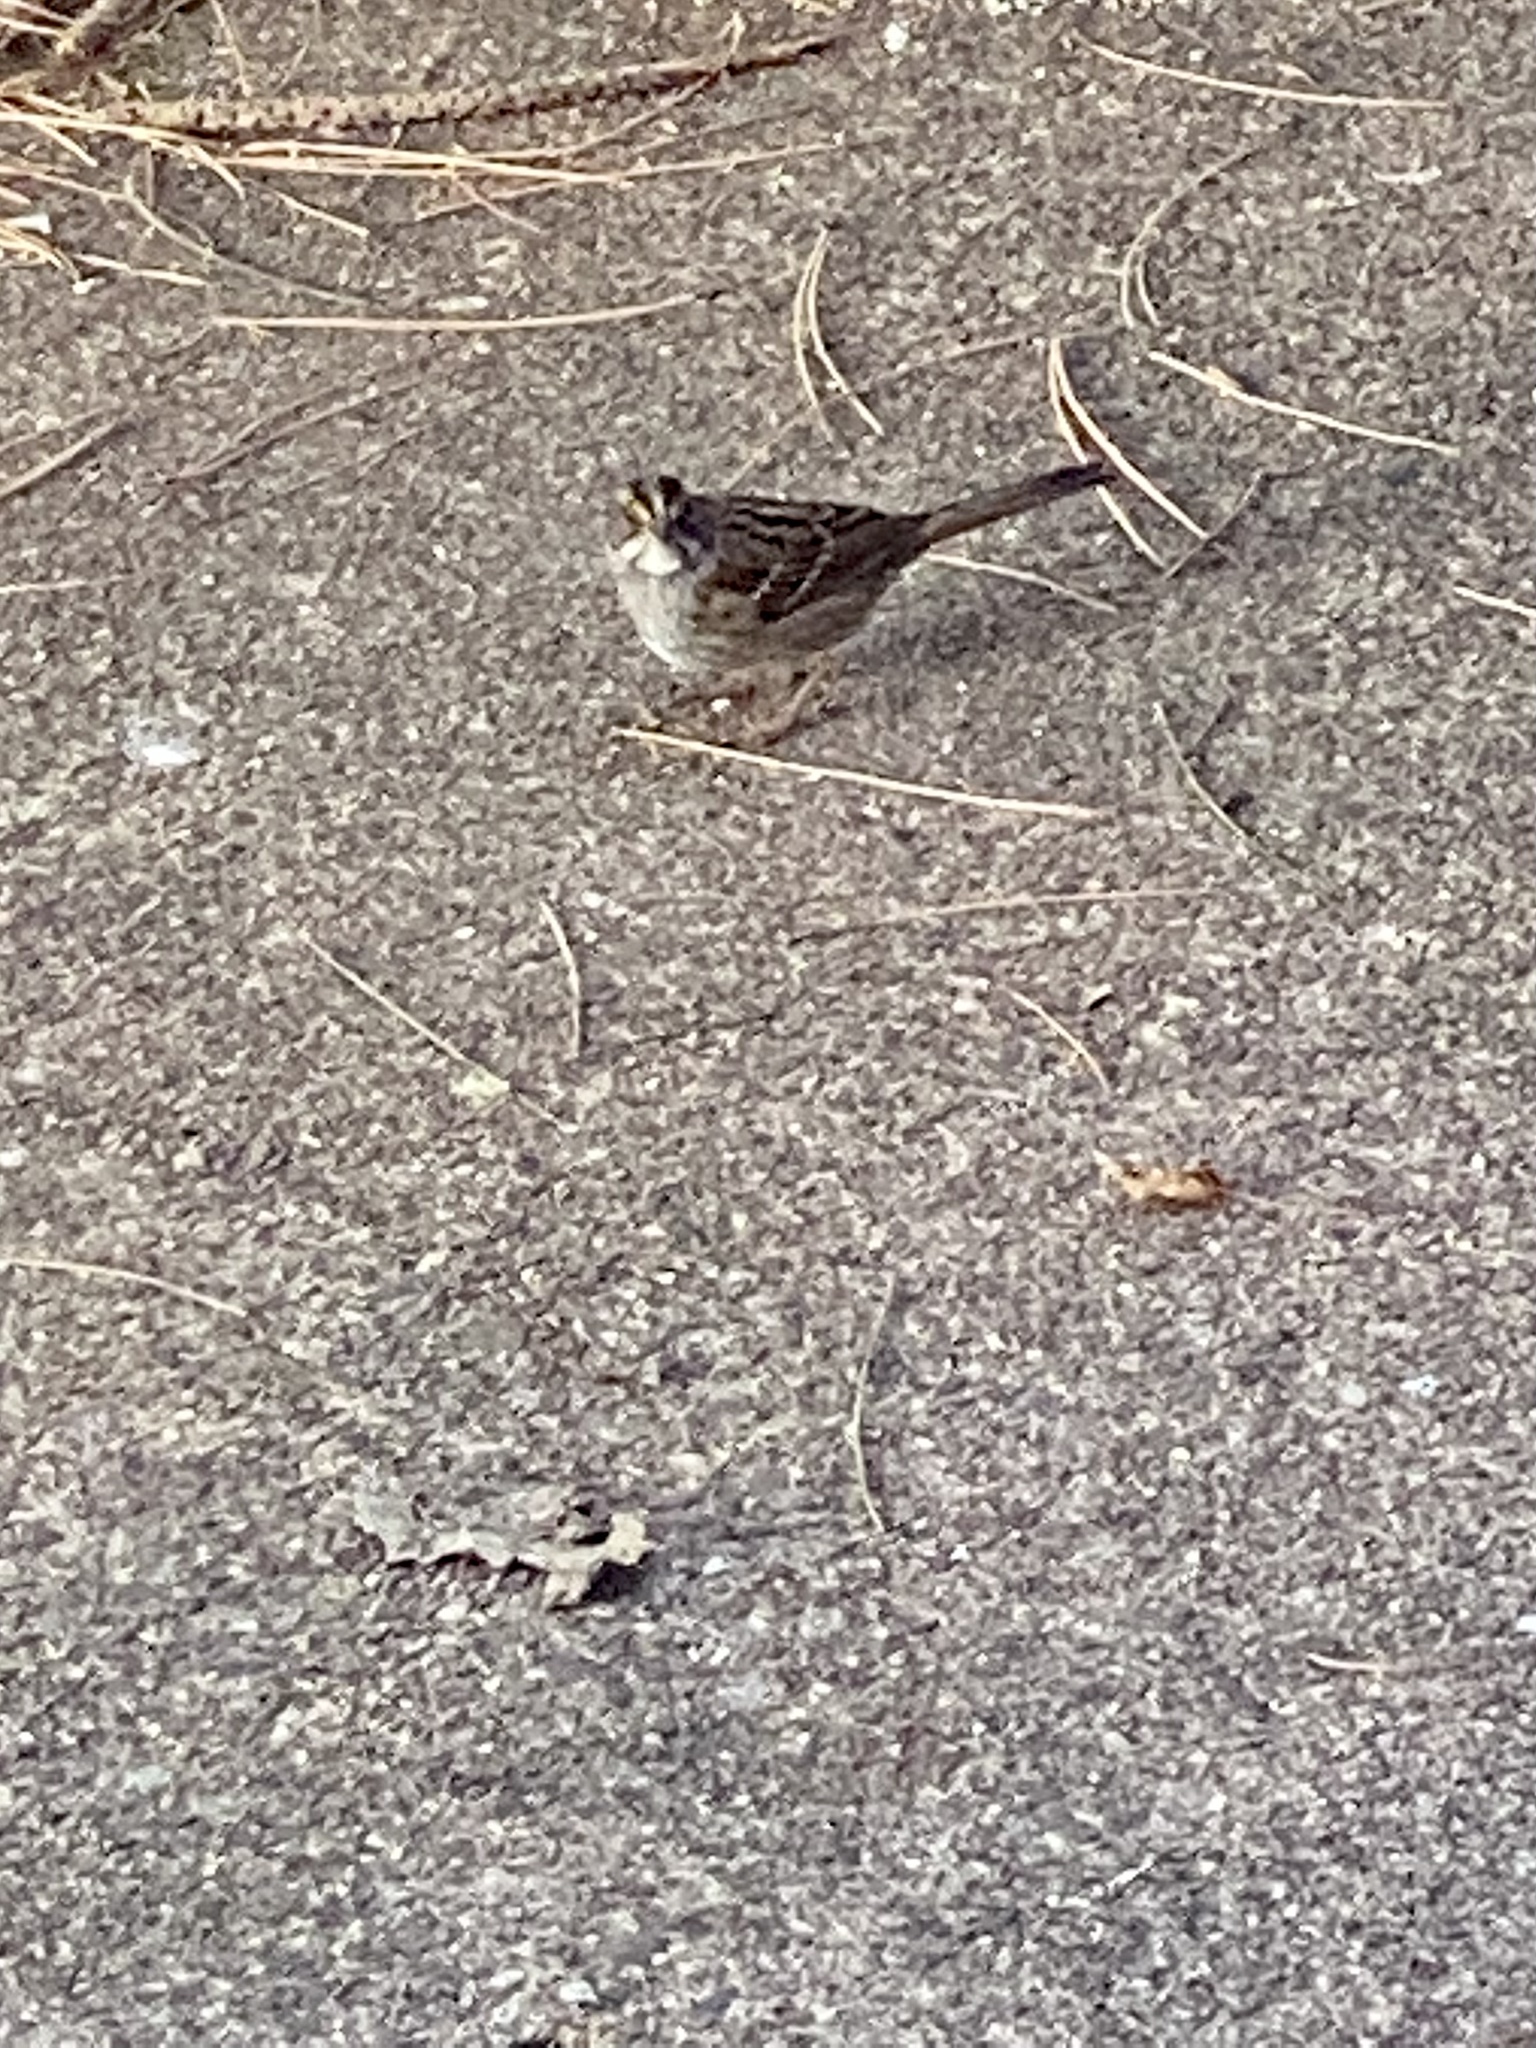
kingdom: Animalia
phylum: Chordata
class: Aves
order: Passeriformes
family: Passerellidae
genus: Zonotrichia
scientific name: Zonotrichia albicollis
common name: White-throated sparrow
